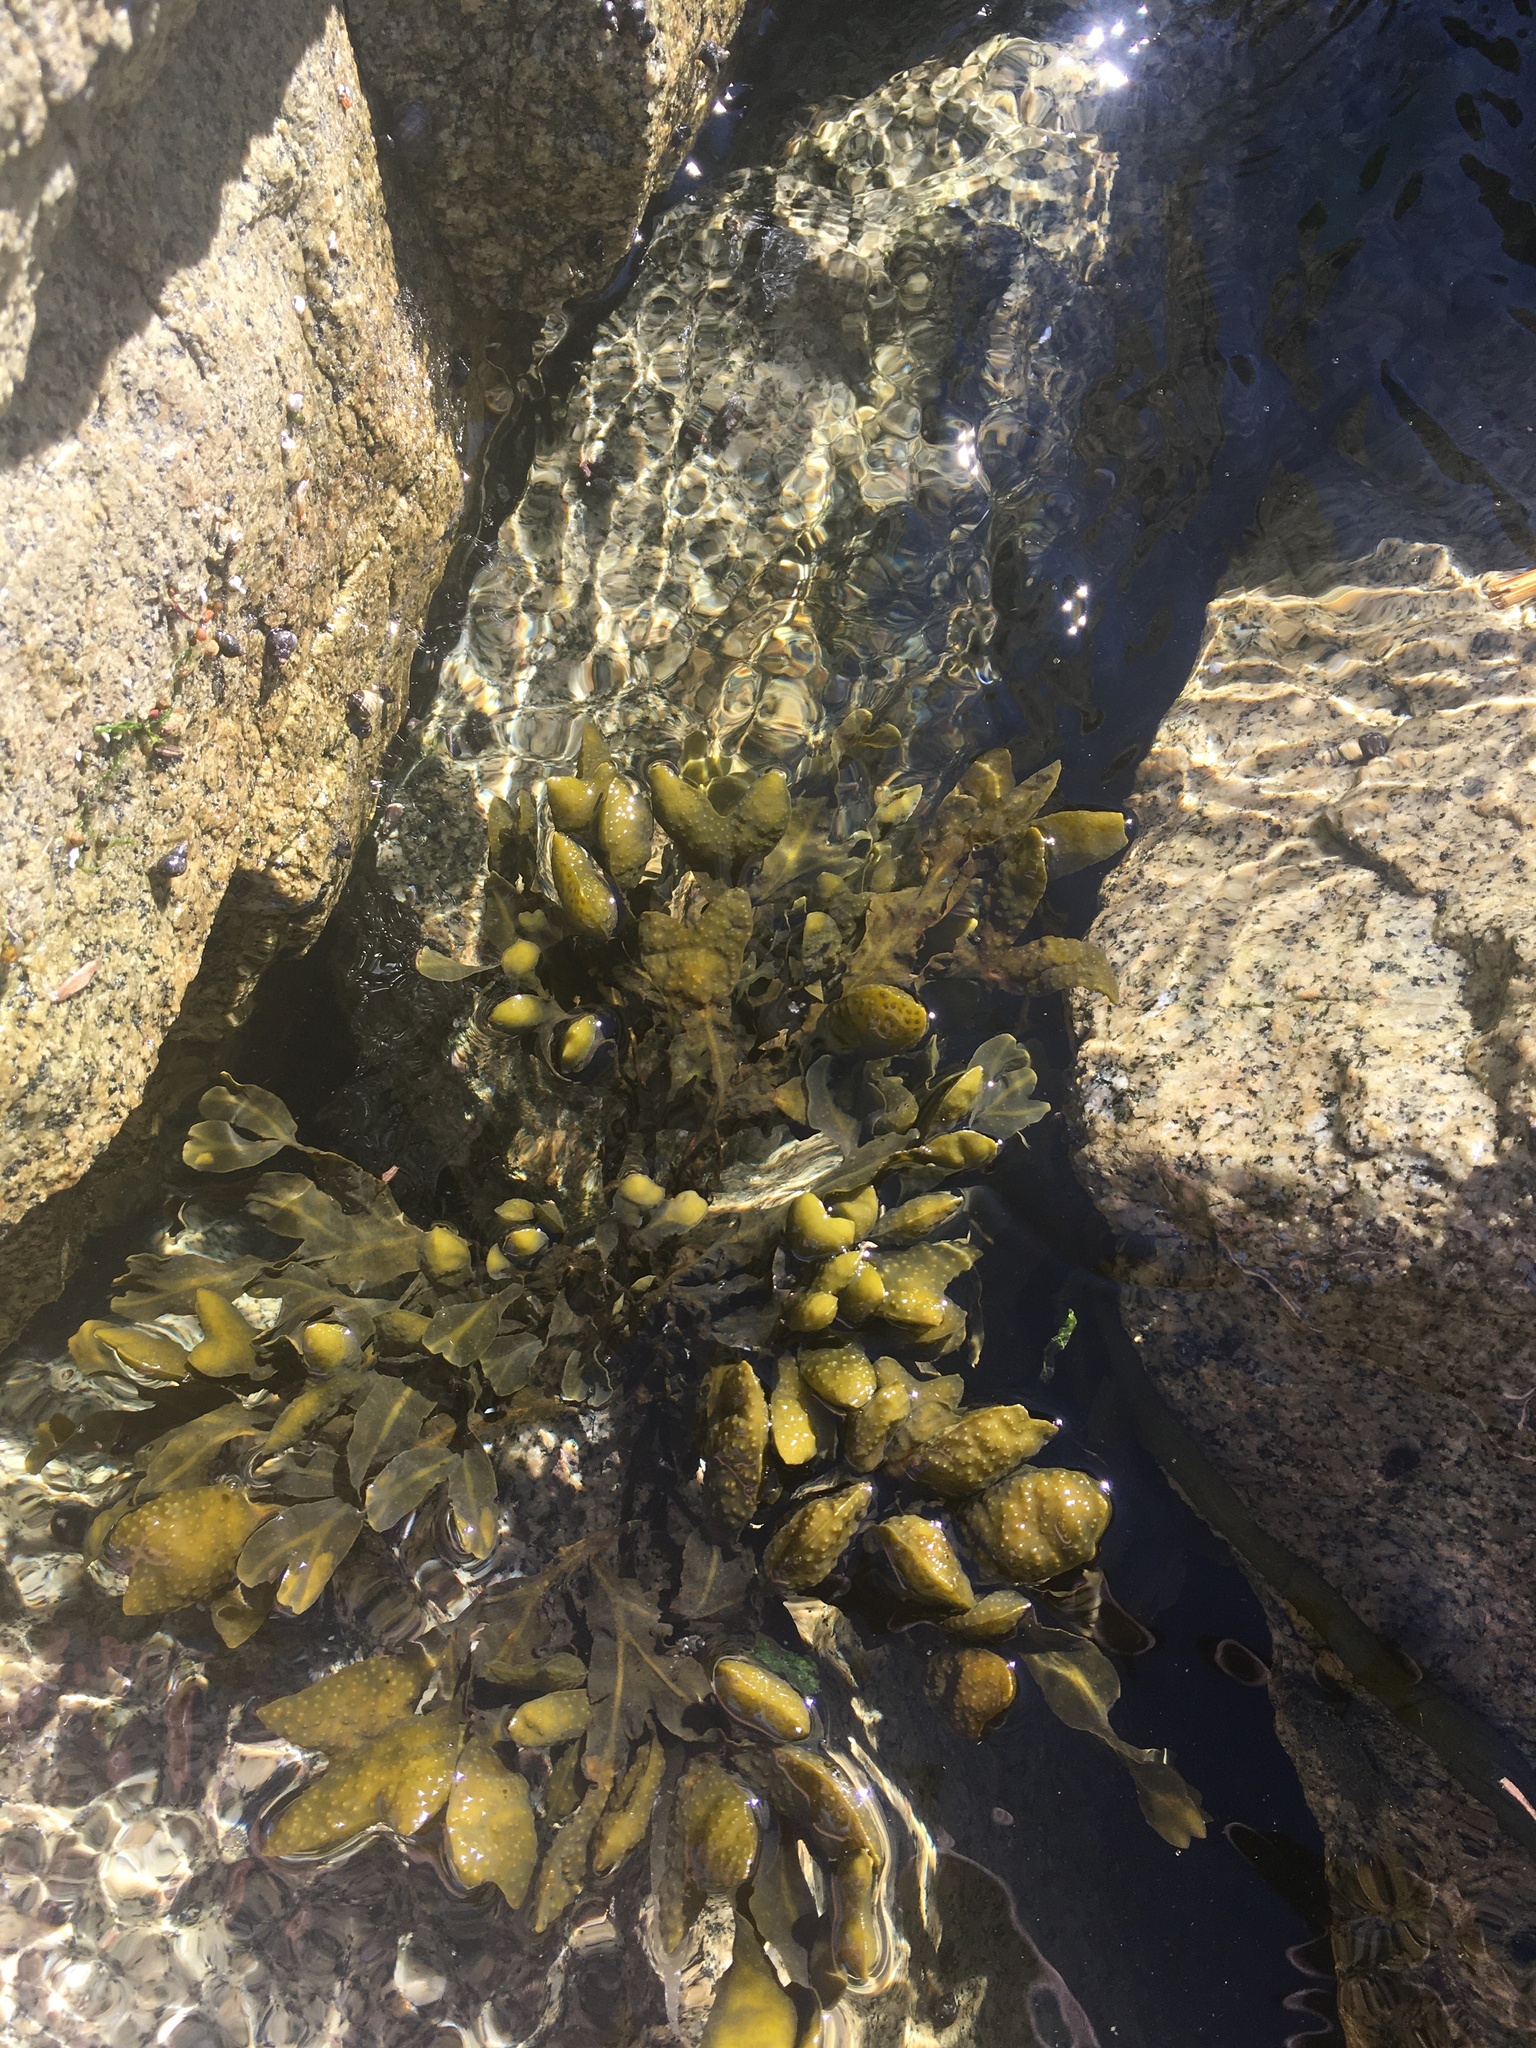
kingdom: Chromista
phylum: Ochrophyta
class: Phaeophyceae
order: Fucales
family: Fucaceae
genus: Fucus
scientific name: Fucus distichus
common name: Rockweed
